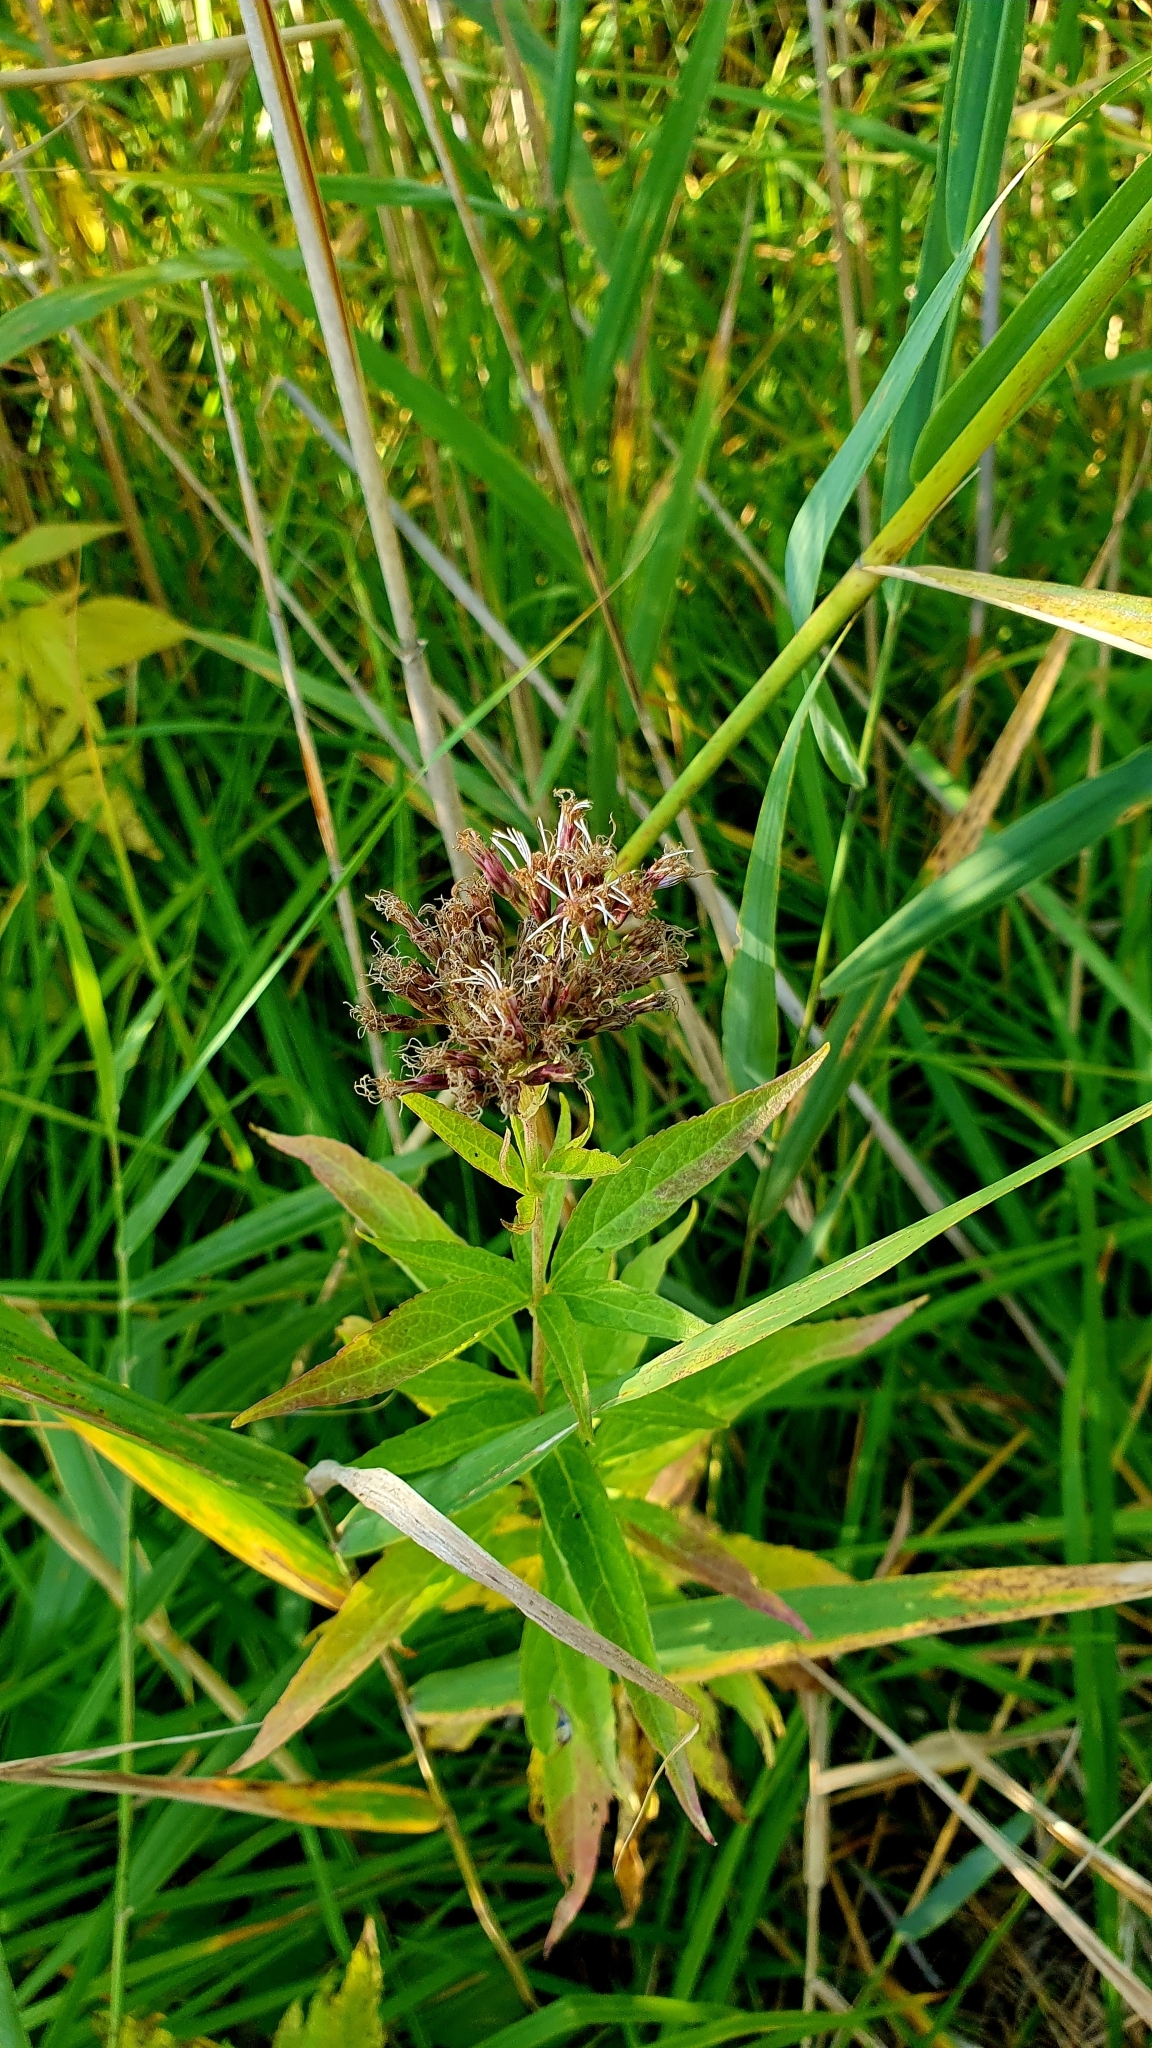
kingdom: Plantae
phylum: Tracheophyta
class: Magnoliopsida
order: Asterales
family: Asteraceae
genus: Eupatorium
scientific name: Eupatorium cannabinum
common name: Hemp-agrimony
